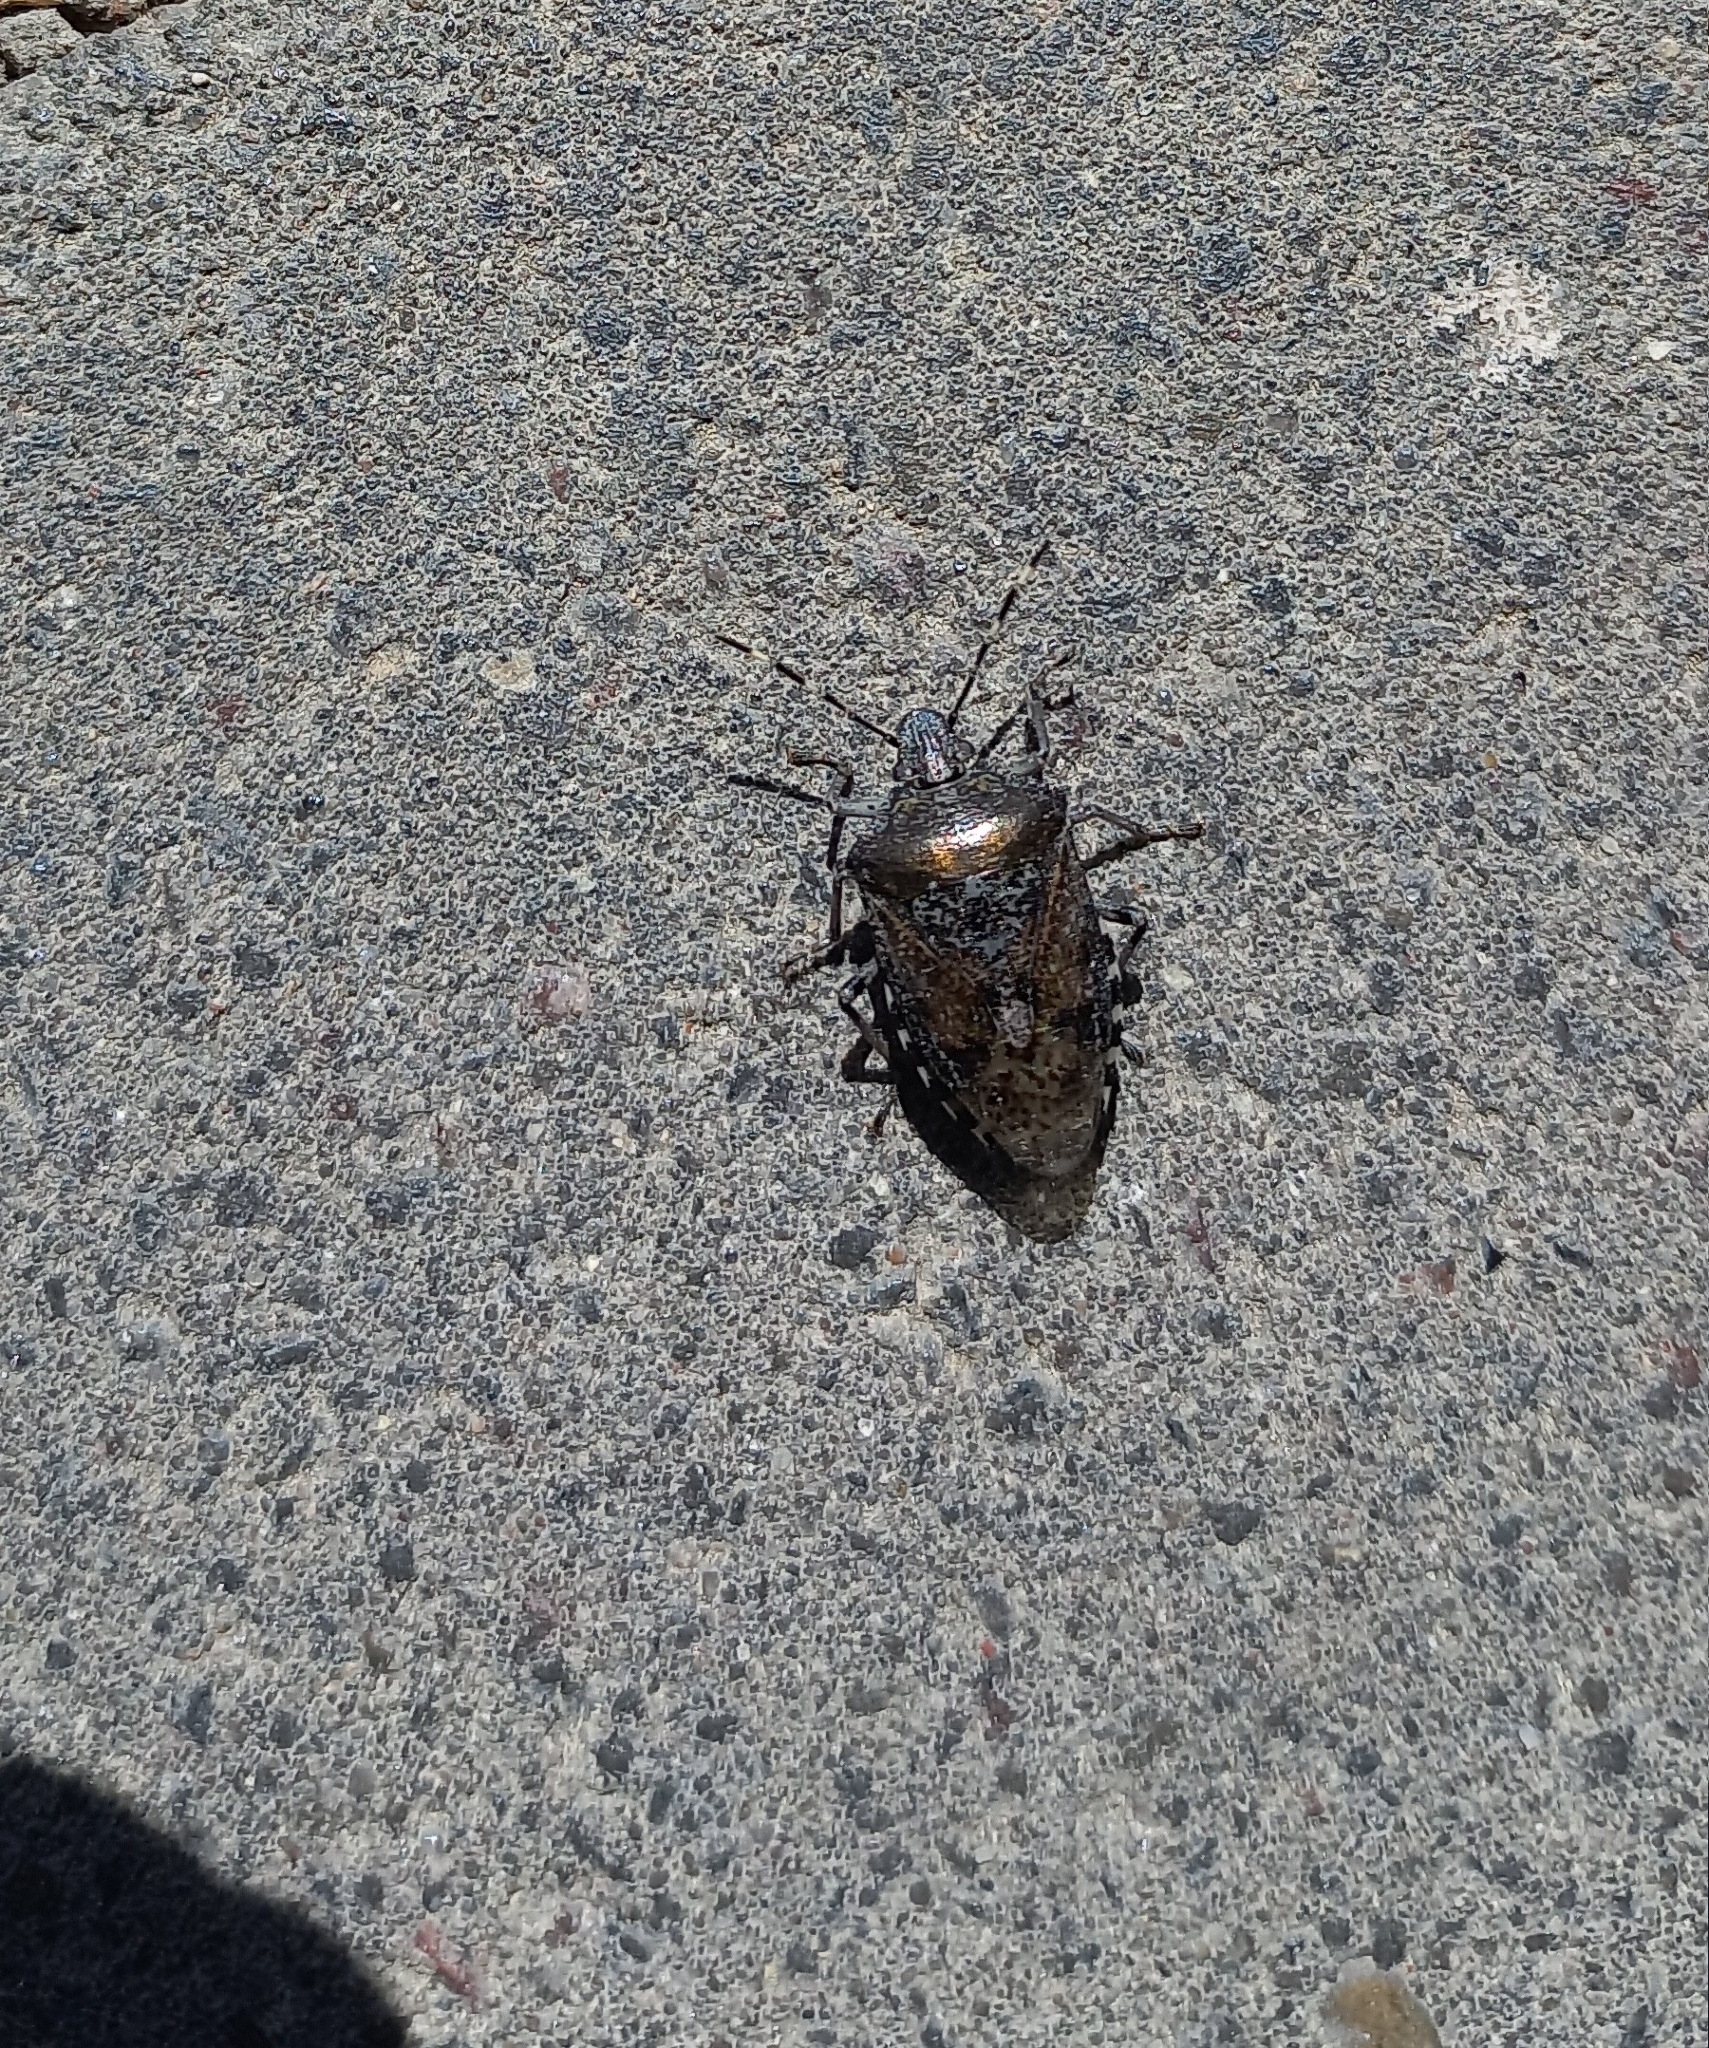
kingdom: Animalia
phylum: Arthropoda
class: Insecta
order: Hemiptera
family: Pentatomidae
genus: Rhaphigaster
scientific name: Rhaphigaster nebulosa
